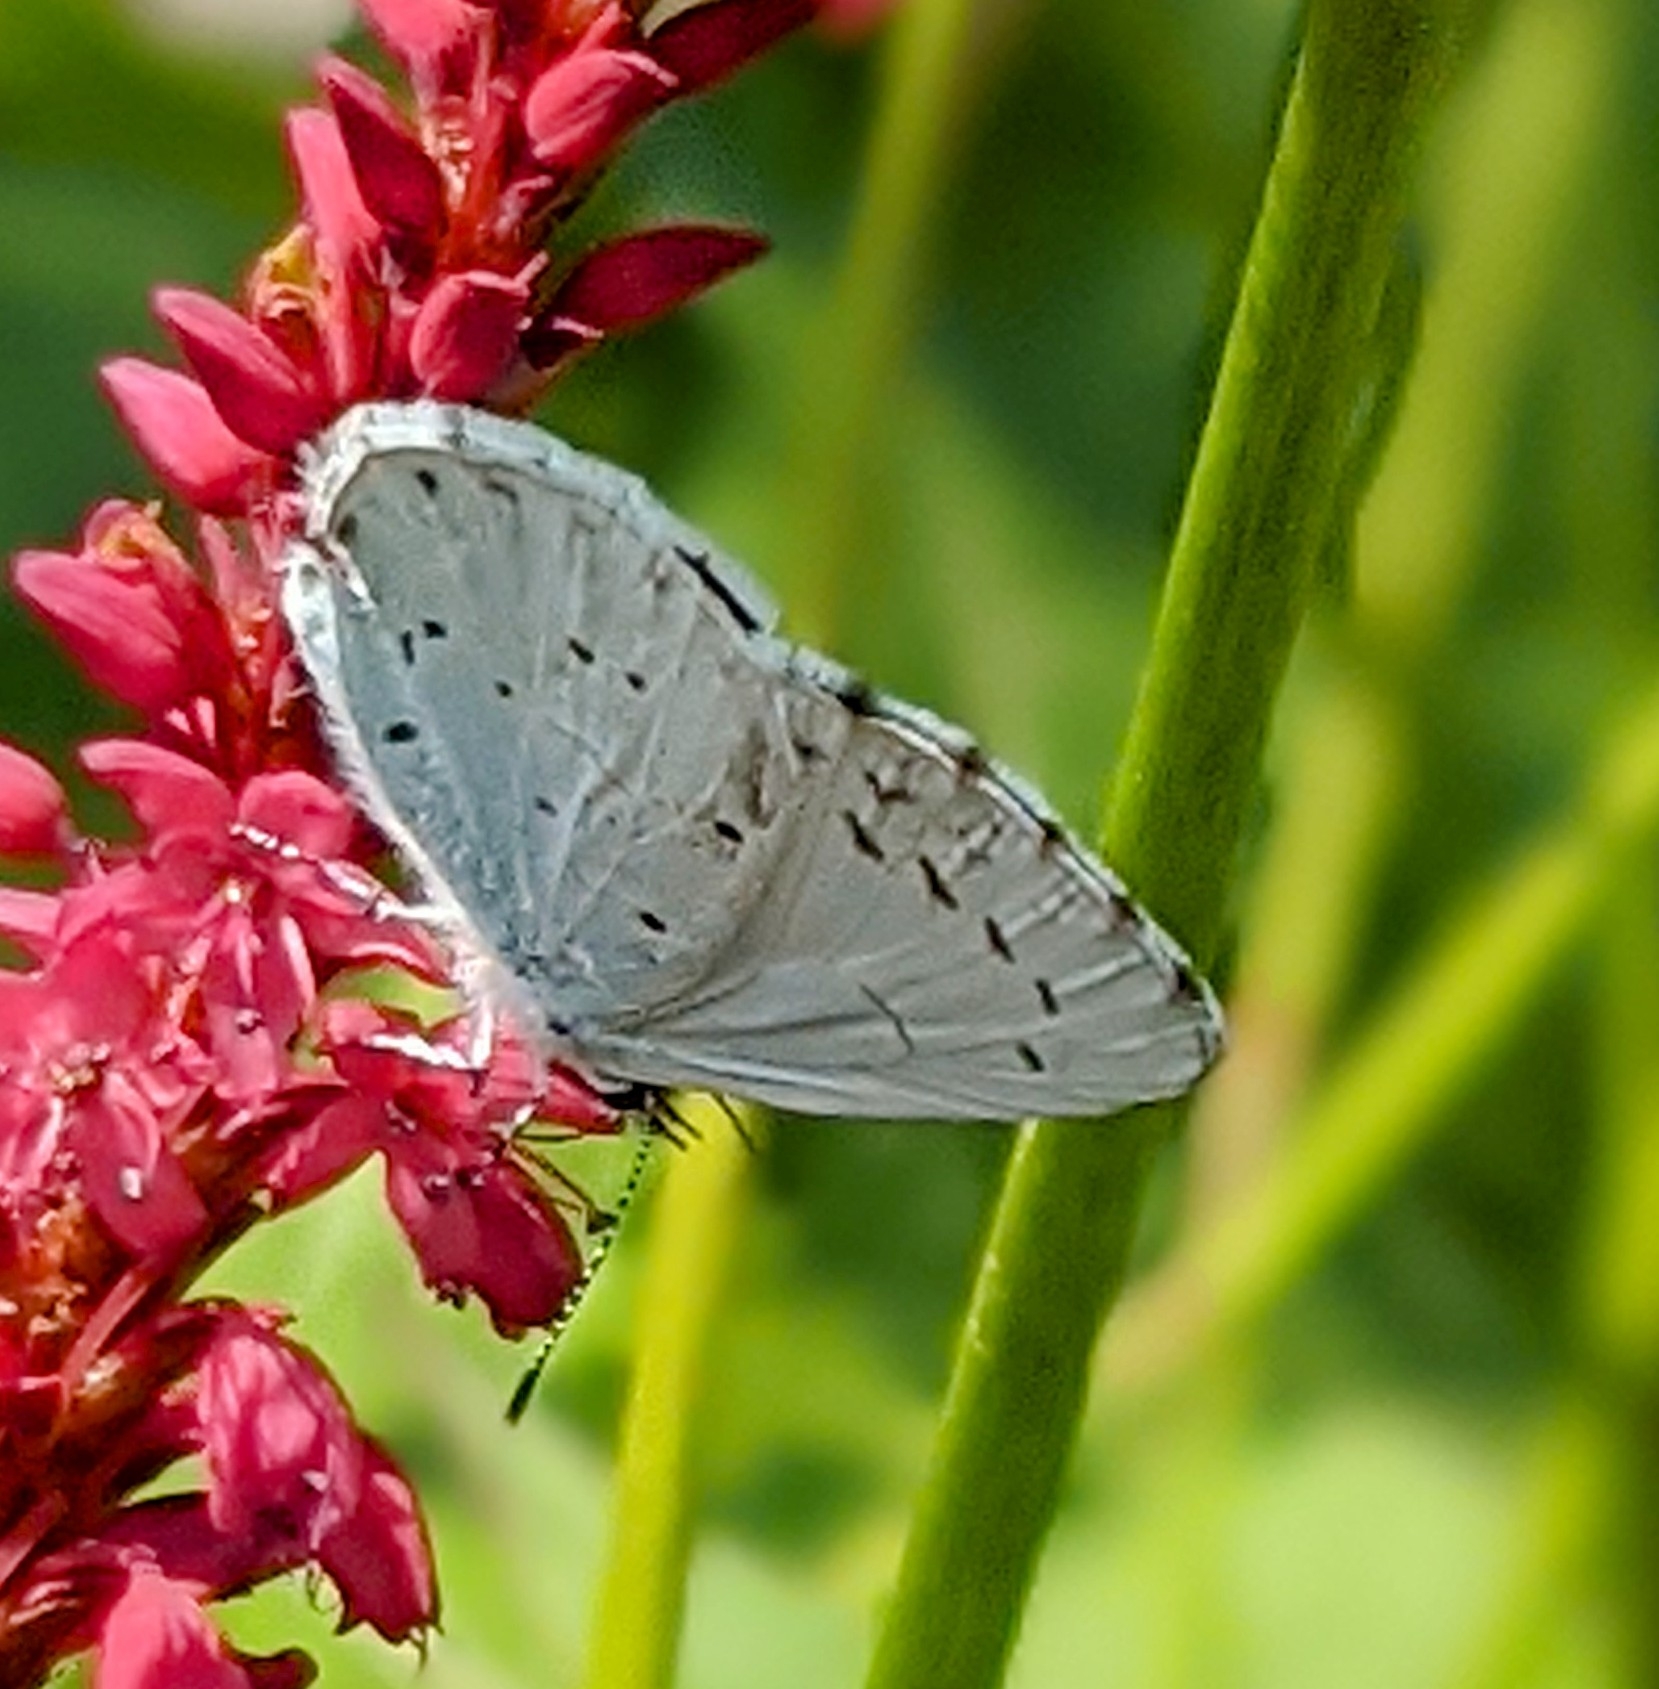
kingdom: Animalia
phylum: Arthropoda
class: Insecta
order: Lepidoptera
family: Lycaenidae
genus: Celastrina
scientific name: Celastrina argiolus
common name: Holly blue
